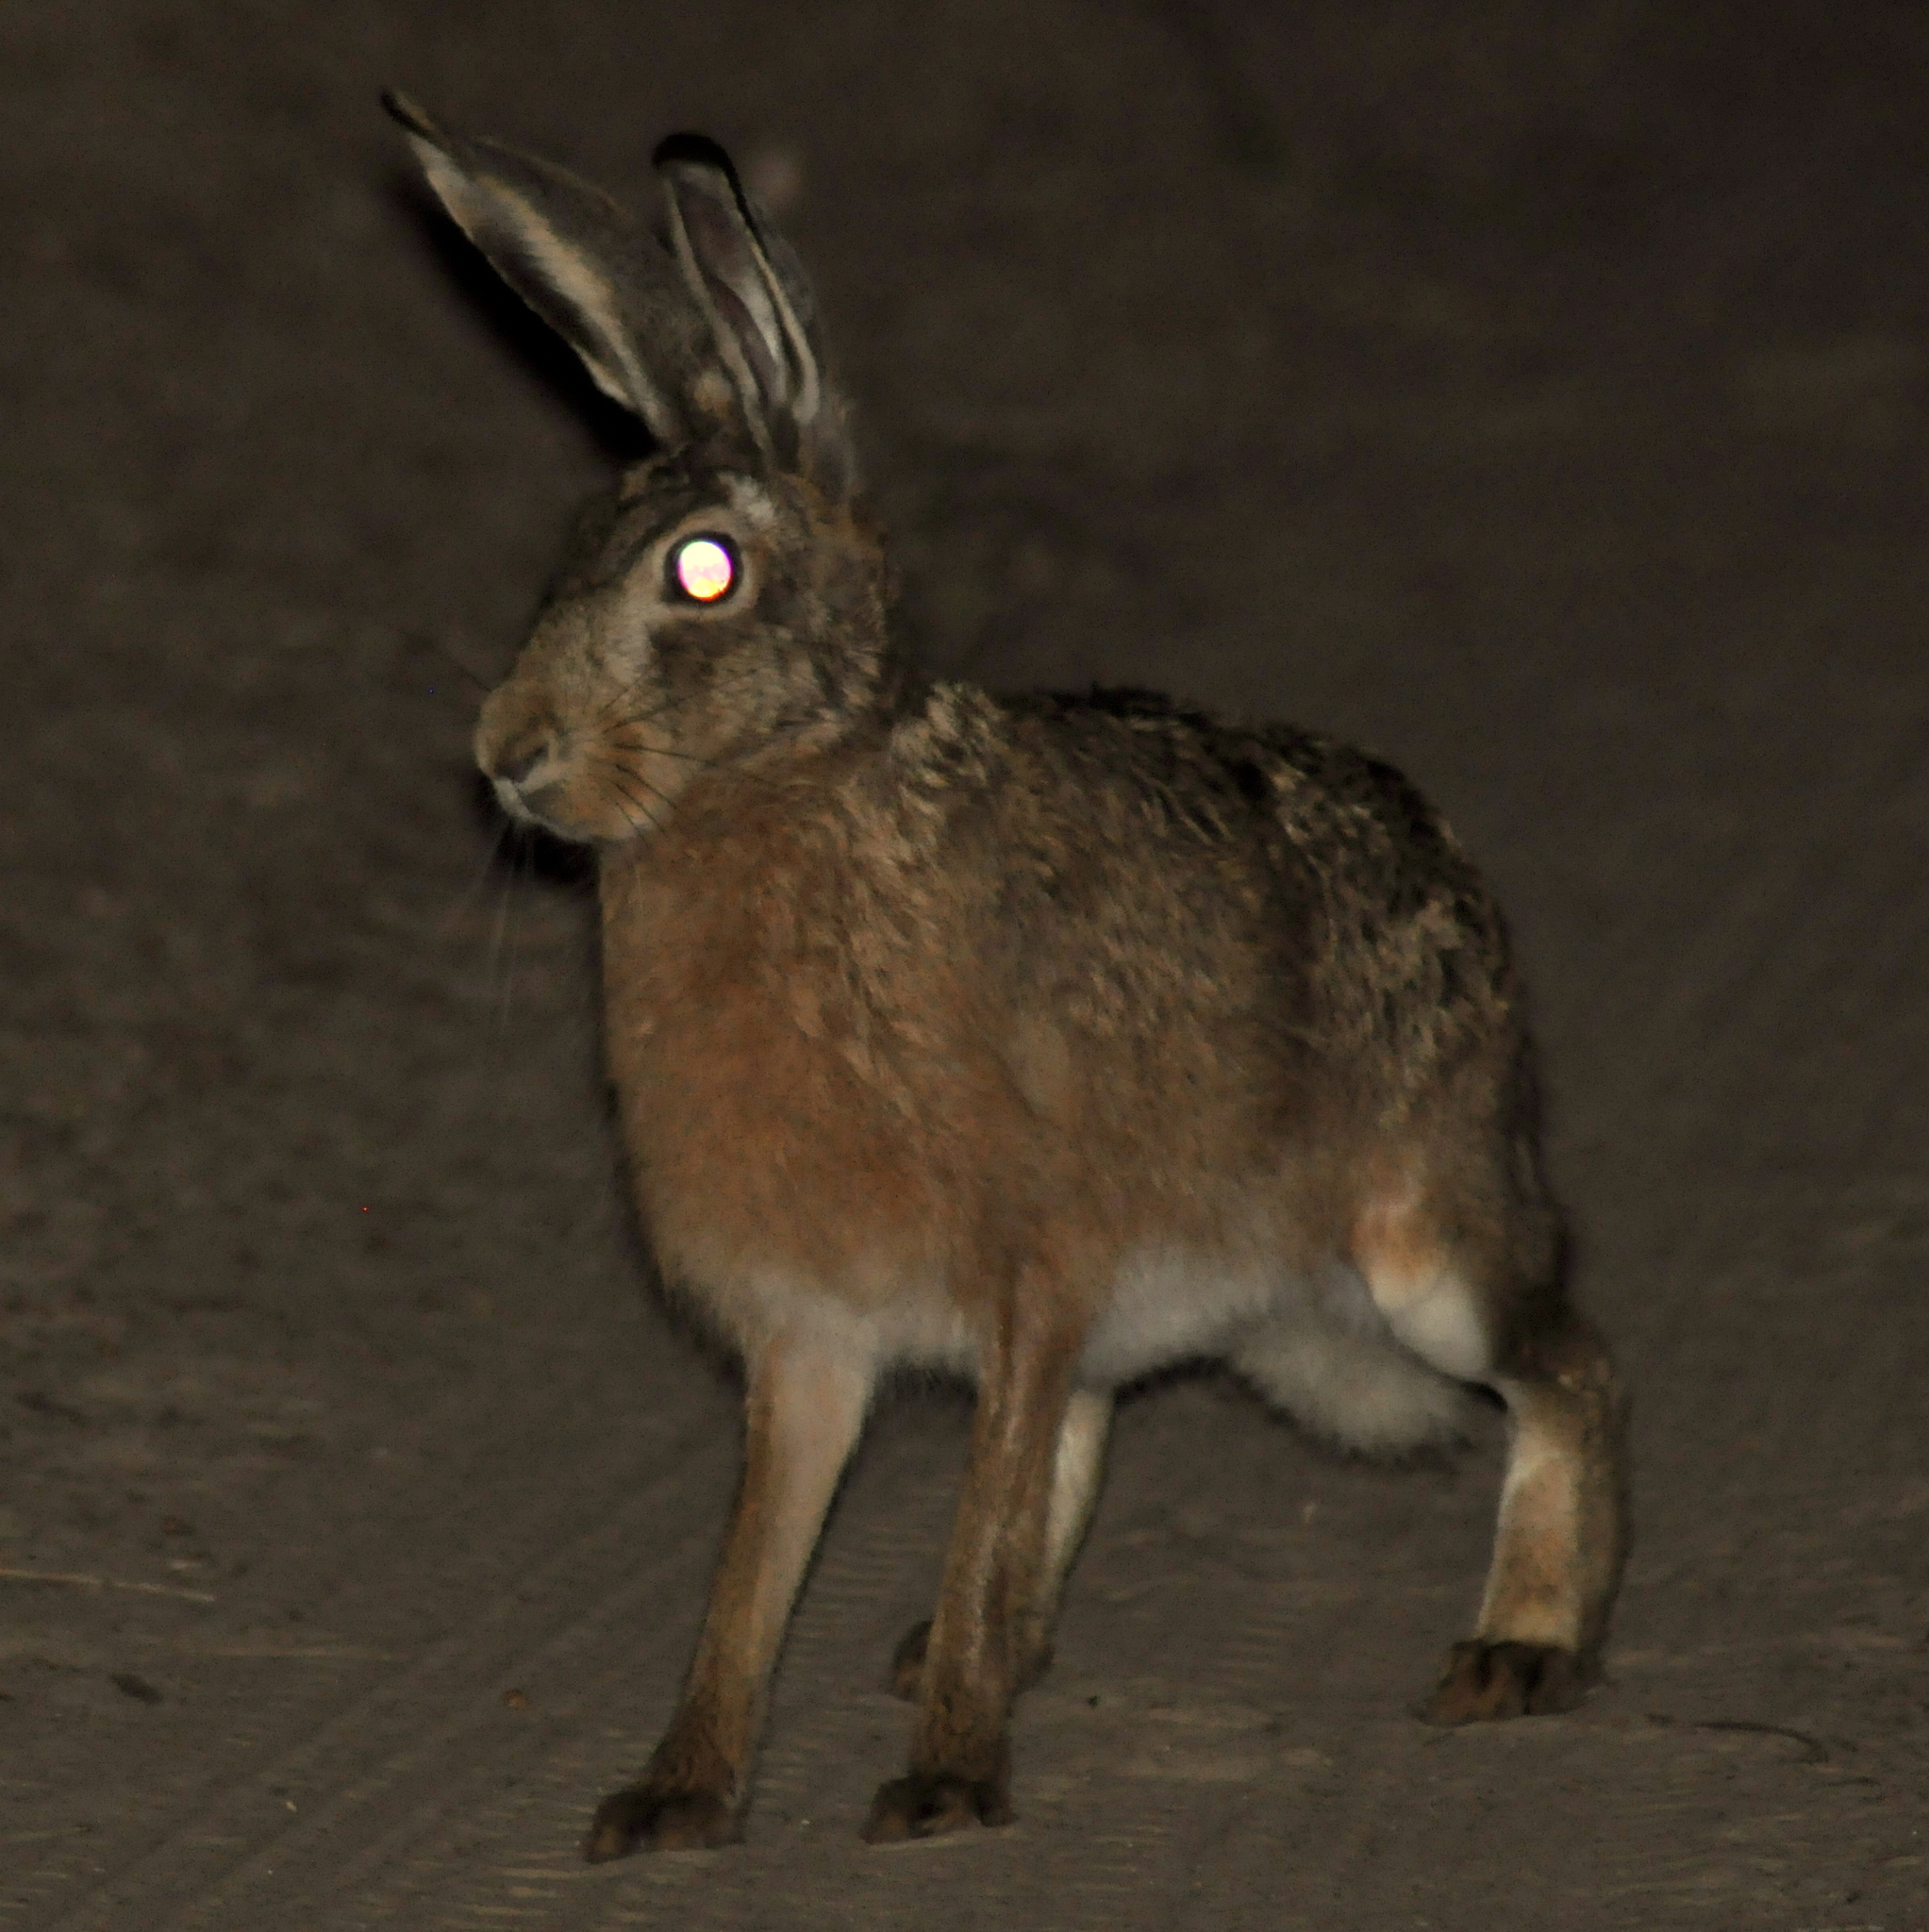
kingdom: Animalia
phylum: Chordata
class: Mammalia
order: Lagomorpha
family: Leporidae
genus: Lepus
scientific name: Lepus europaeus
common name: European hare
